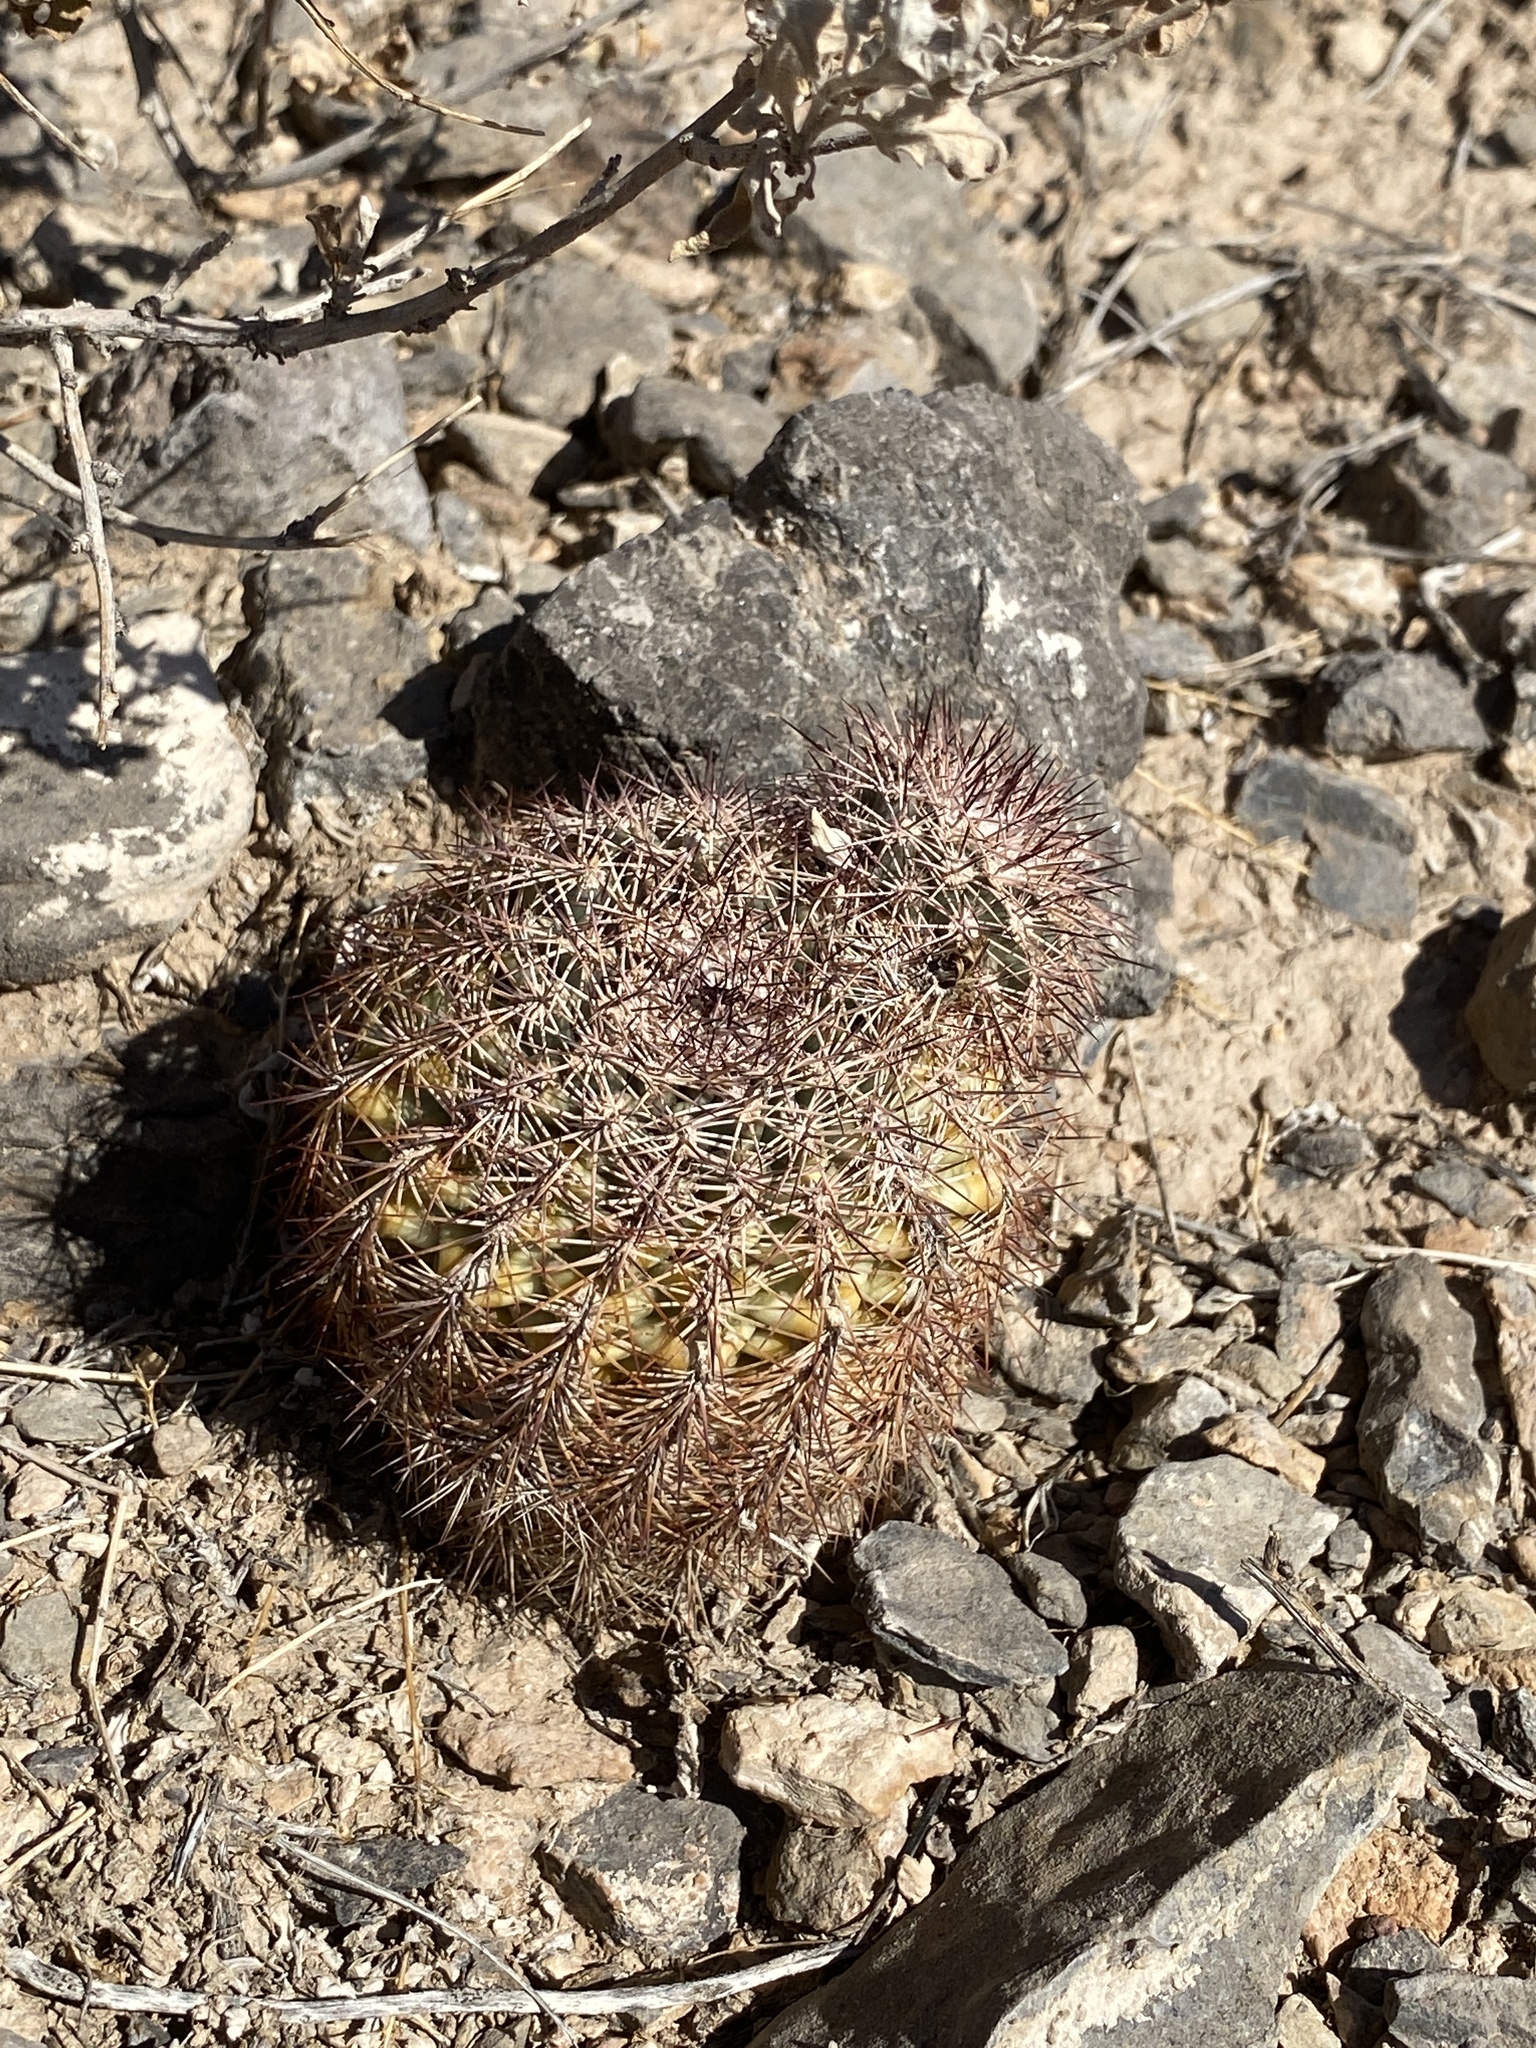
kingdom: Plantae
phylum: Tracheophyta
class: Magnoliopsida
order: Caryophyllales
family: Cactaceae
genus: Echinocereus
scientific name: Echinocereus roetteri
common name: Lloyd's hedgehog cactus
